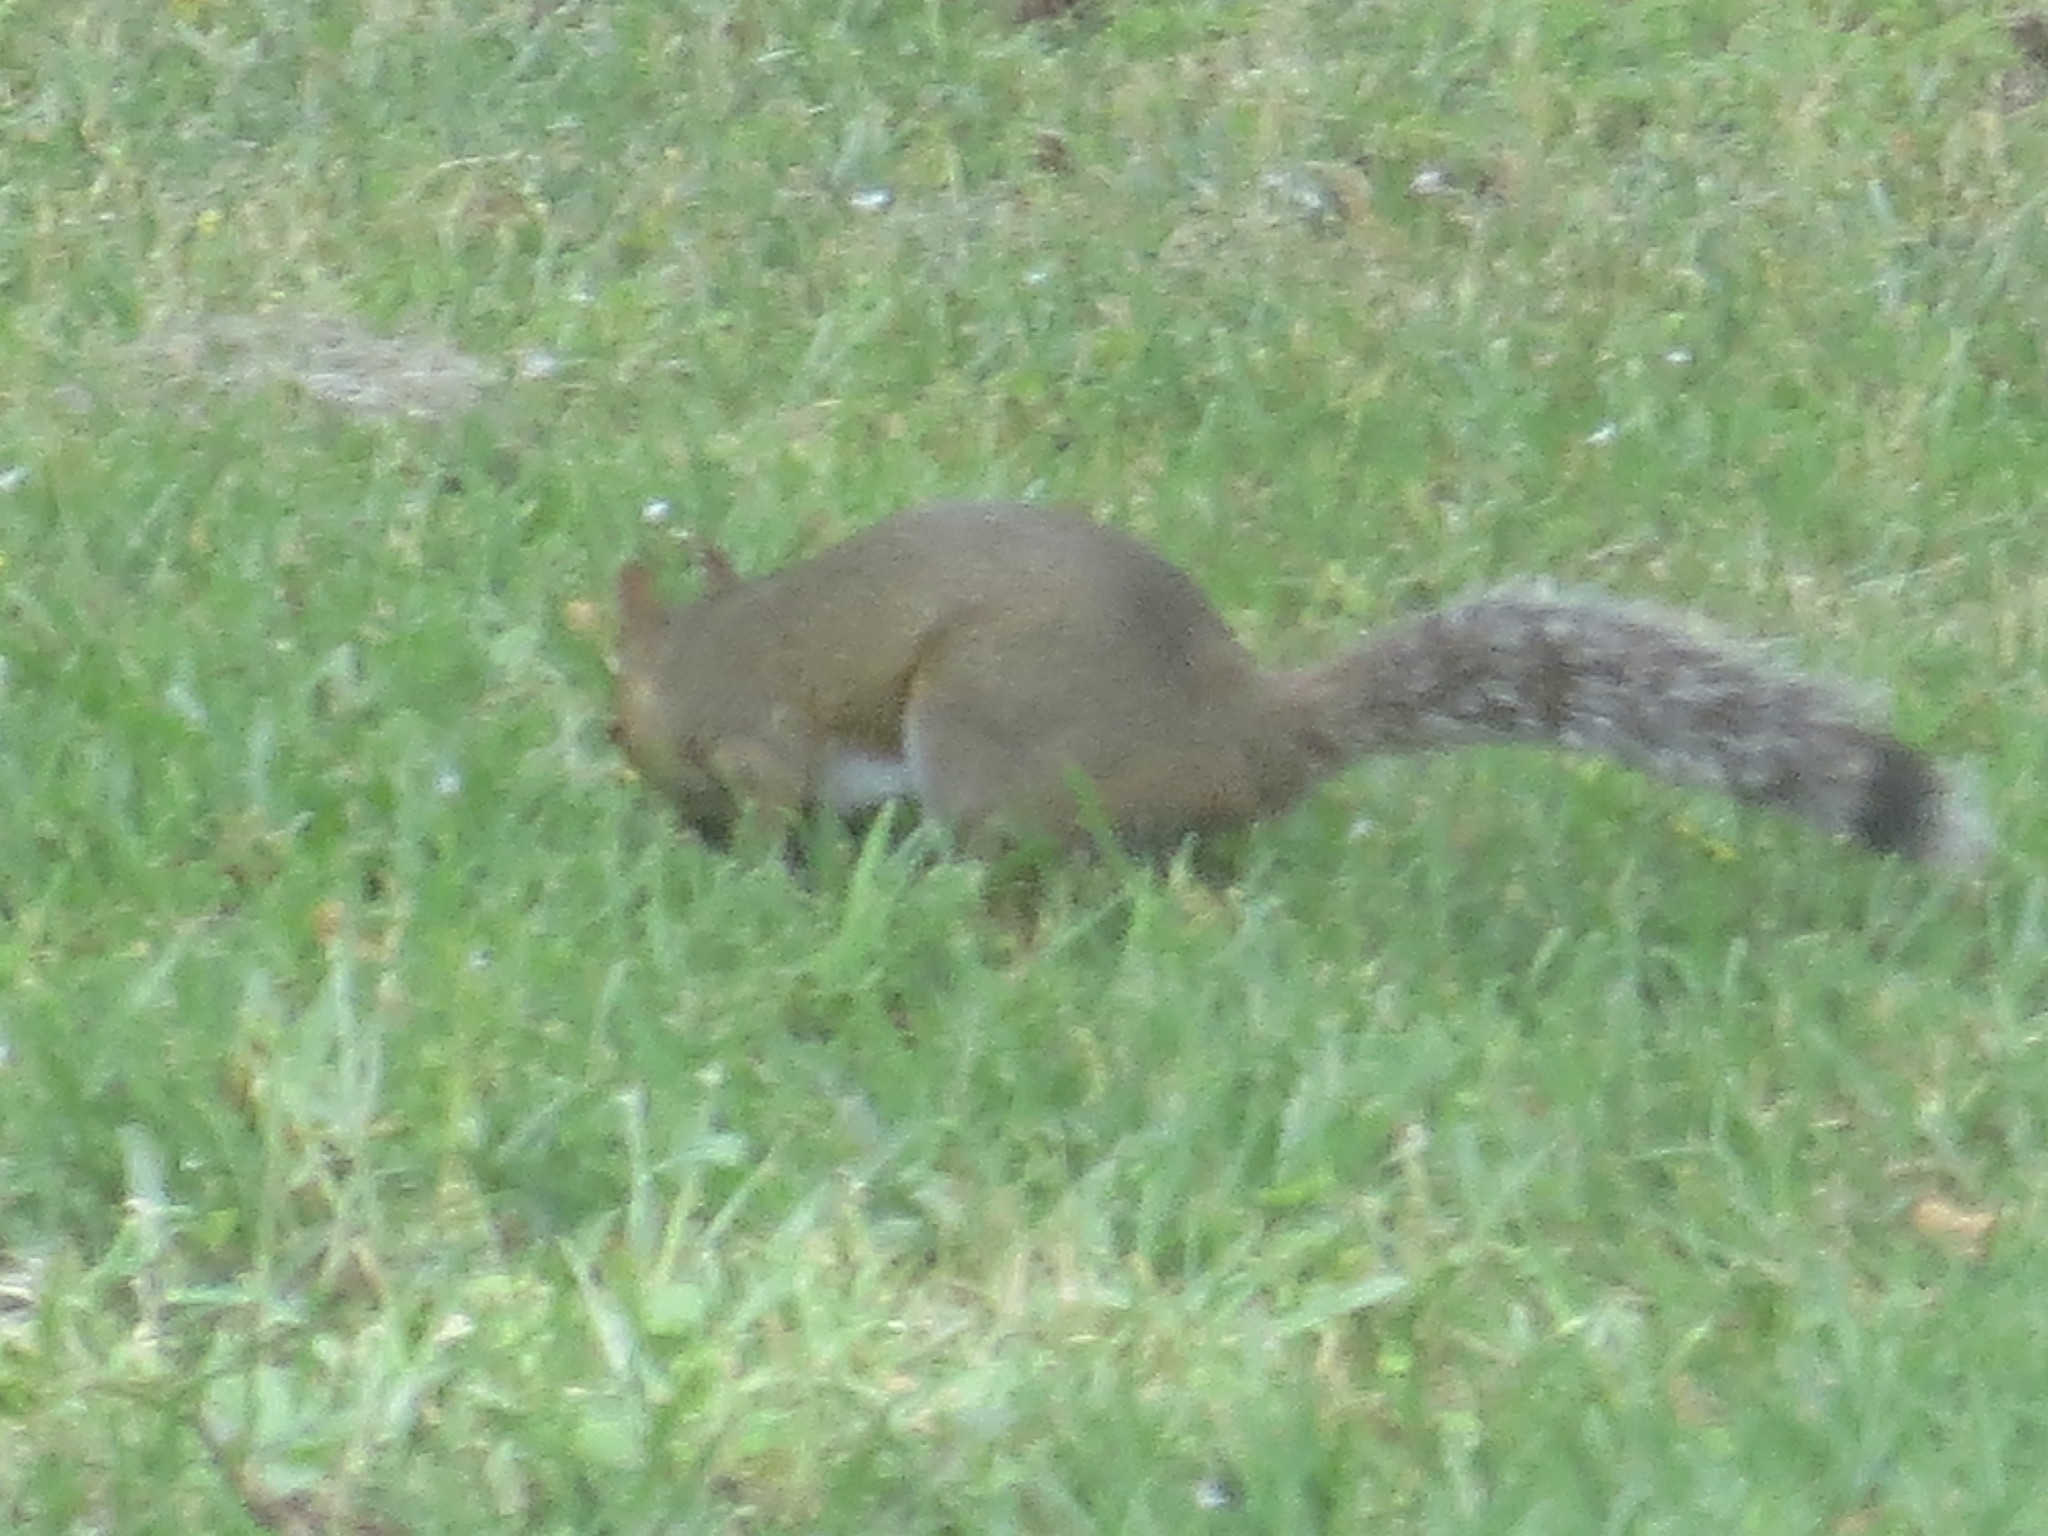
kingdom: Animalia
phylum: Chordata
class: Mammalia
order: Rodentia
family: Sciuridae
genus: Sciurus
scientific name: Sciurus carolinensis
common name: Eastern gray squirrel
